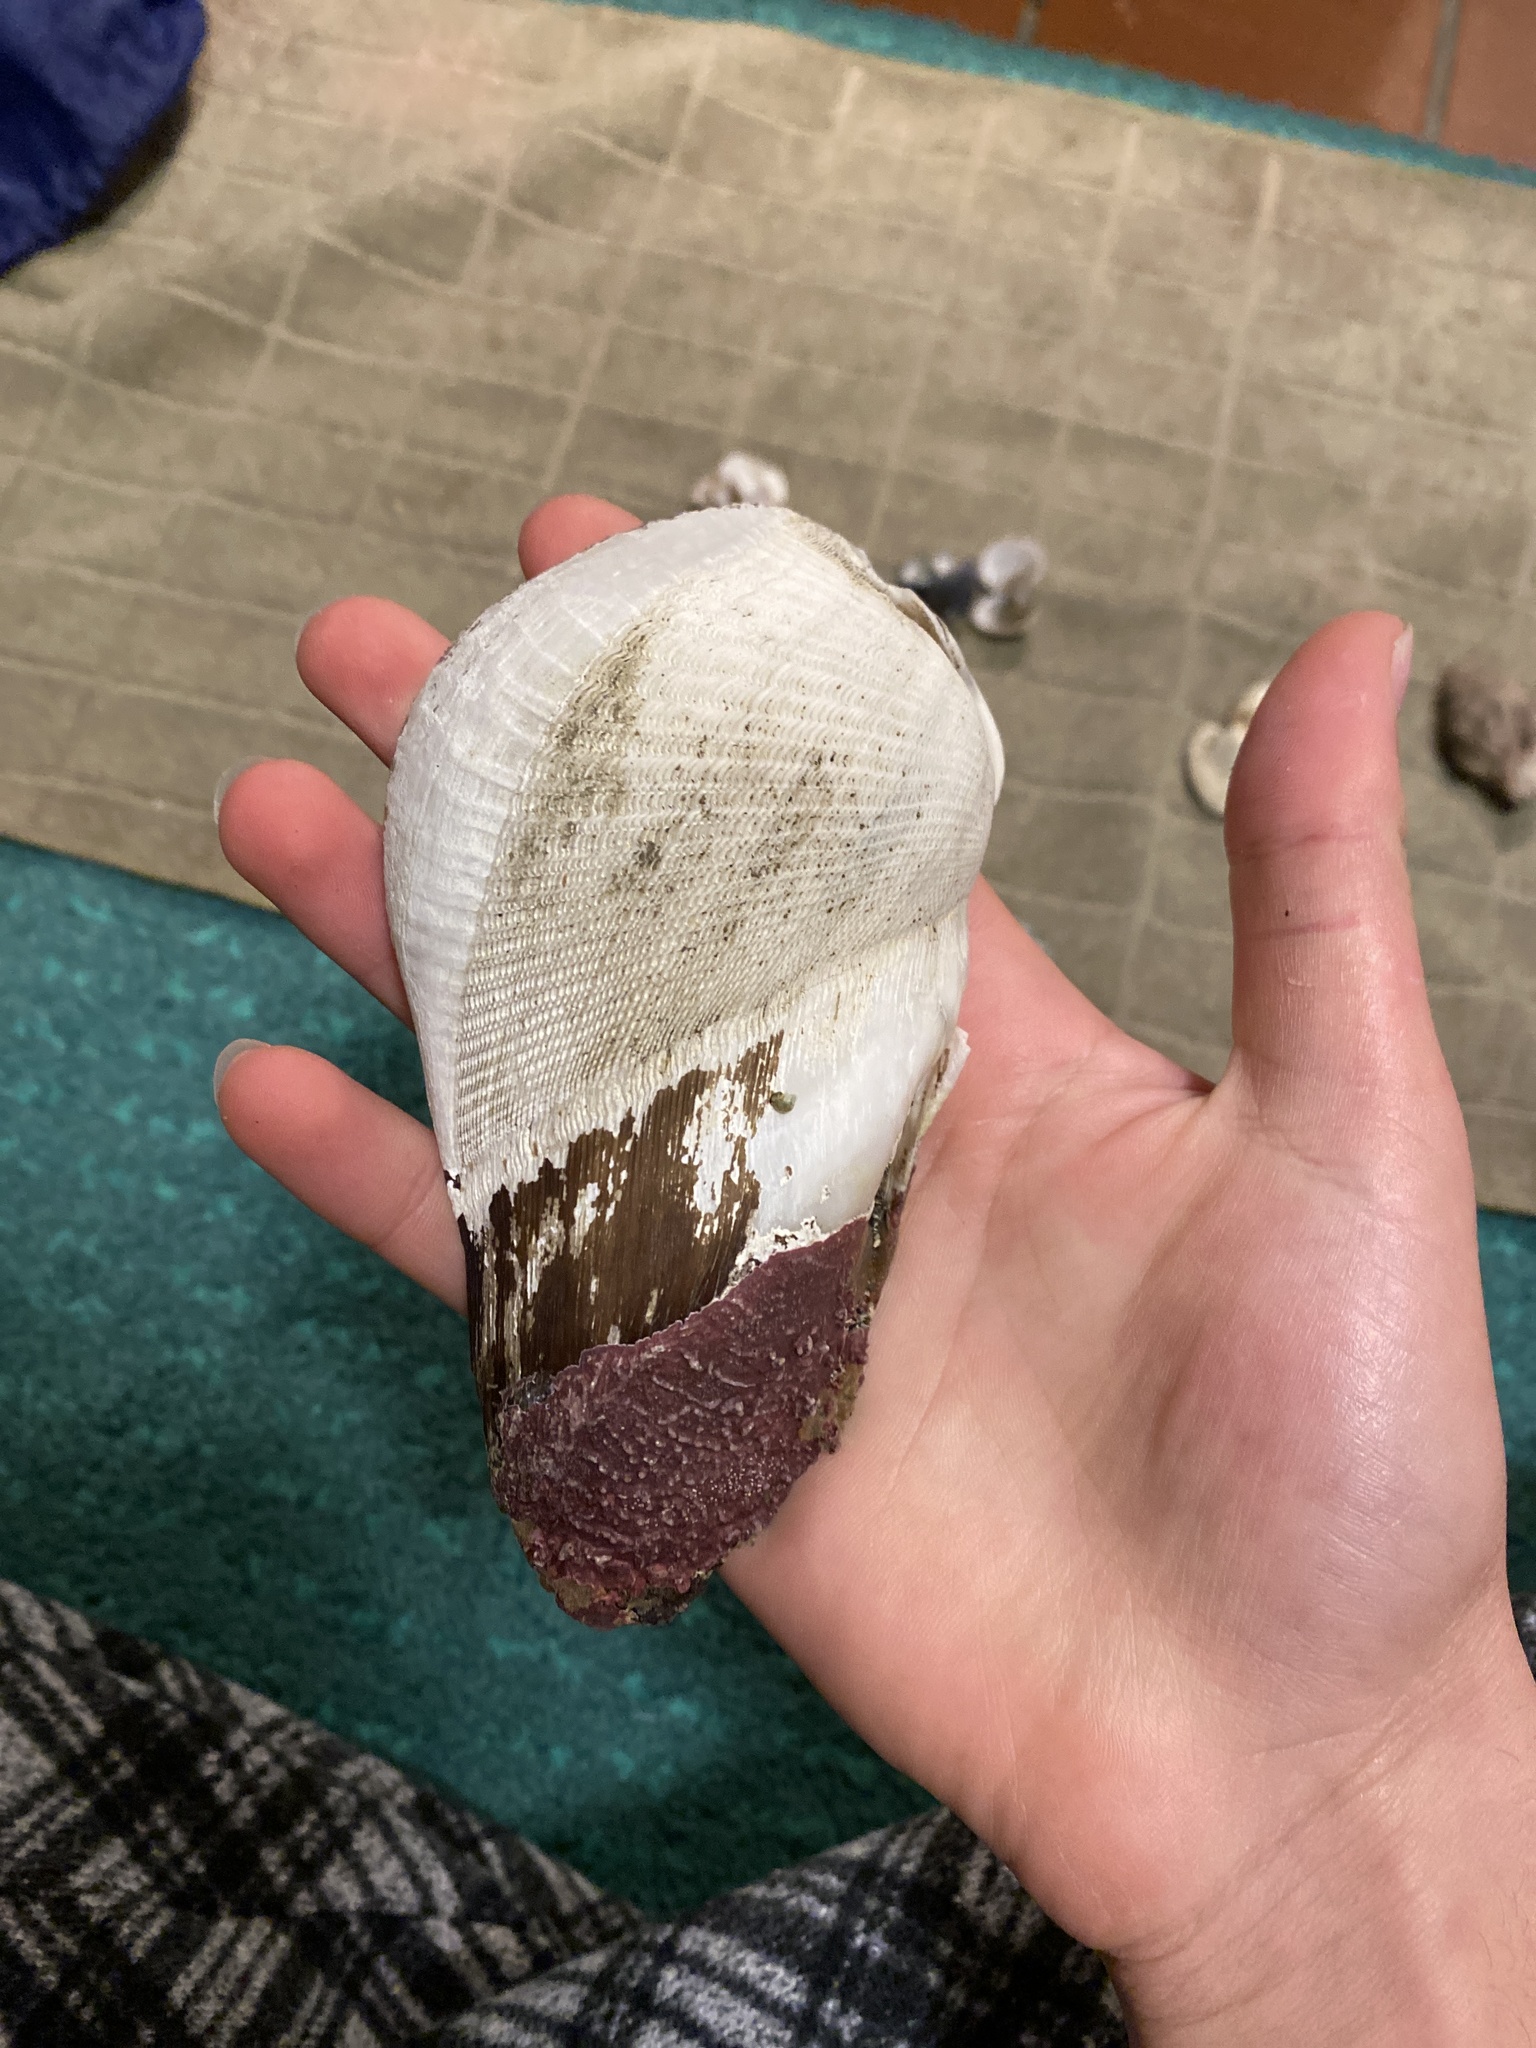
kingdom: Animalia
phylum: Mollusca
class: Bivalvia
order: Myida
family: Pholadidae
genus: Parapholas
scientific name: Parapholas californica
